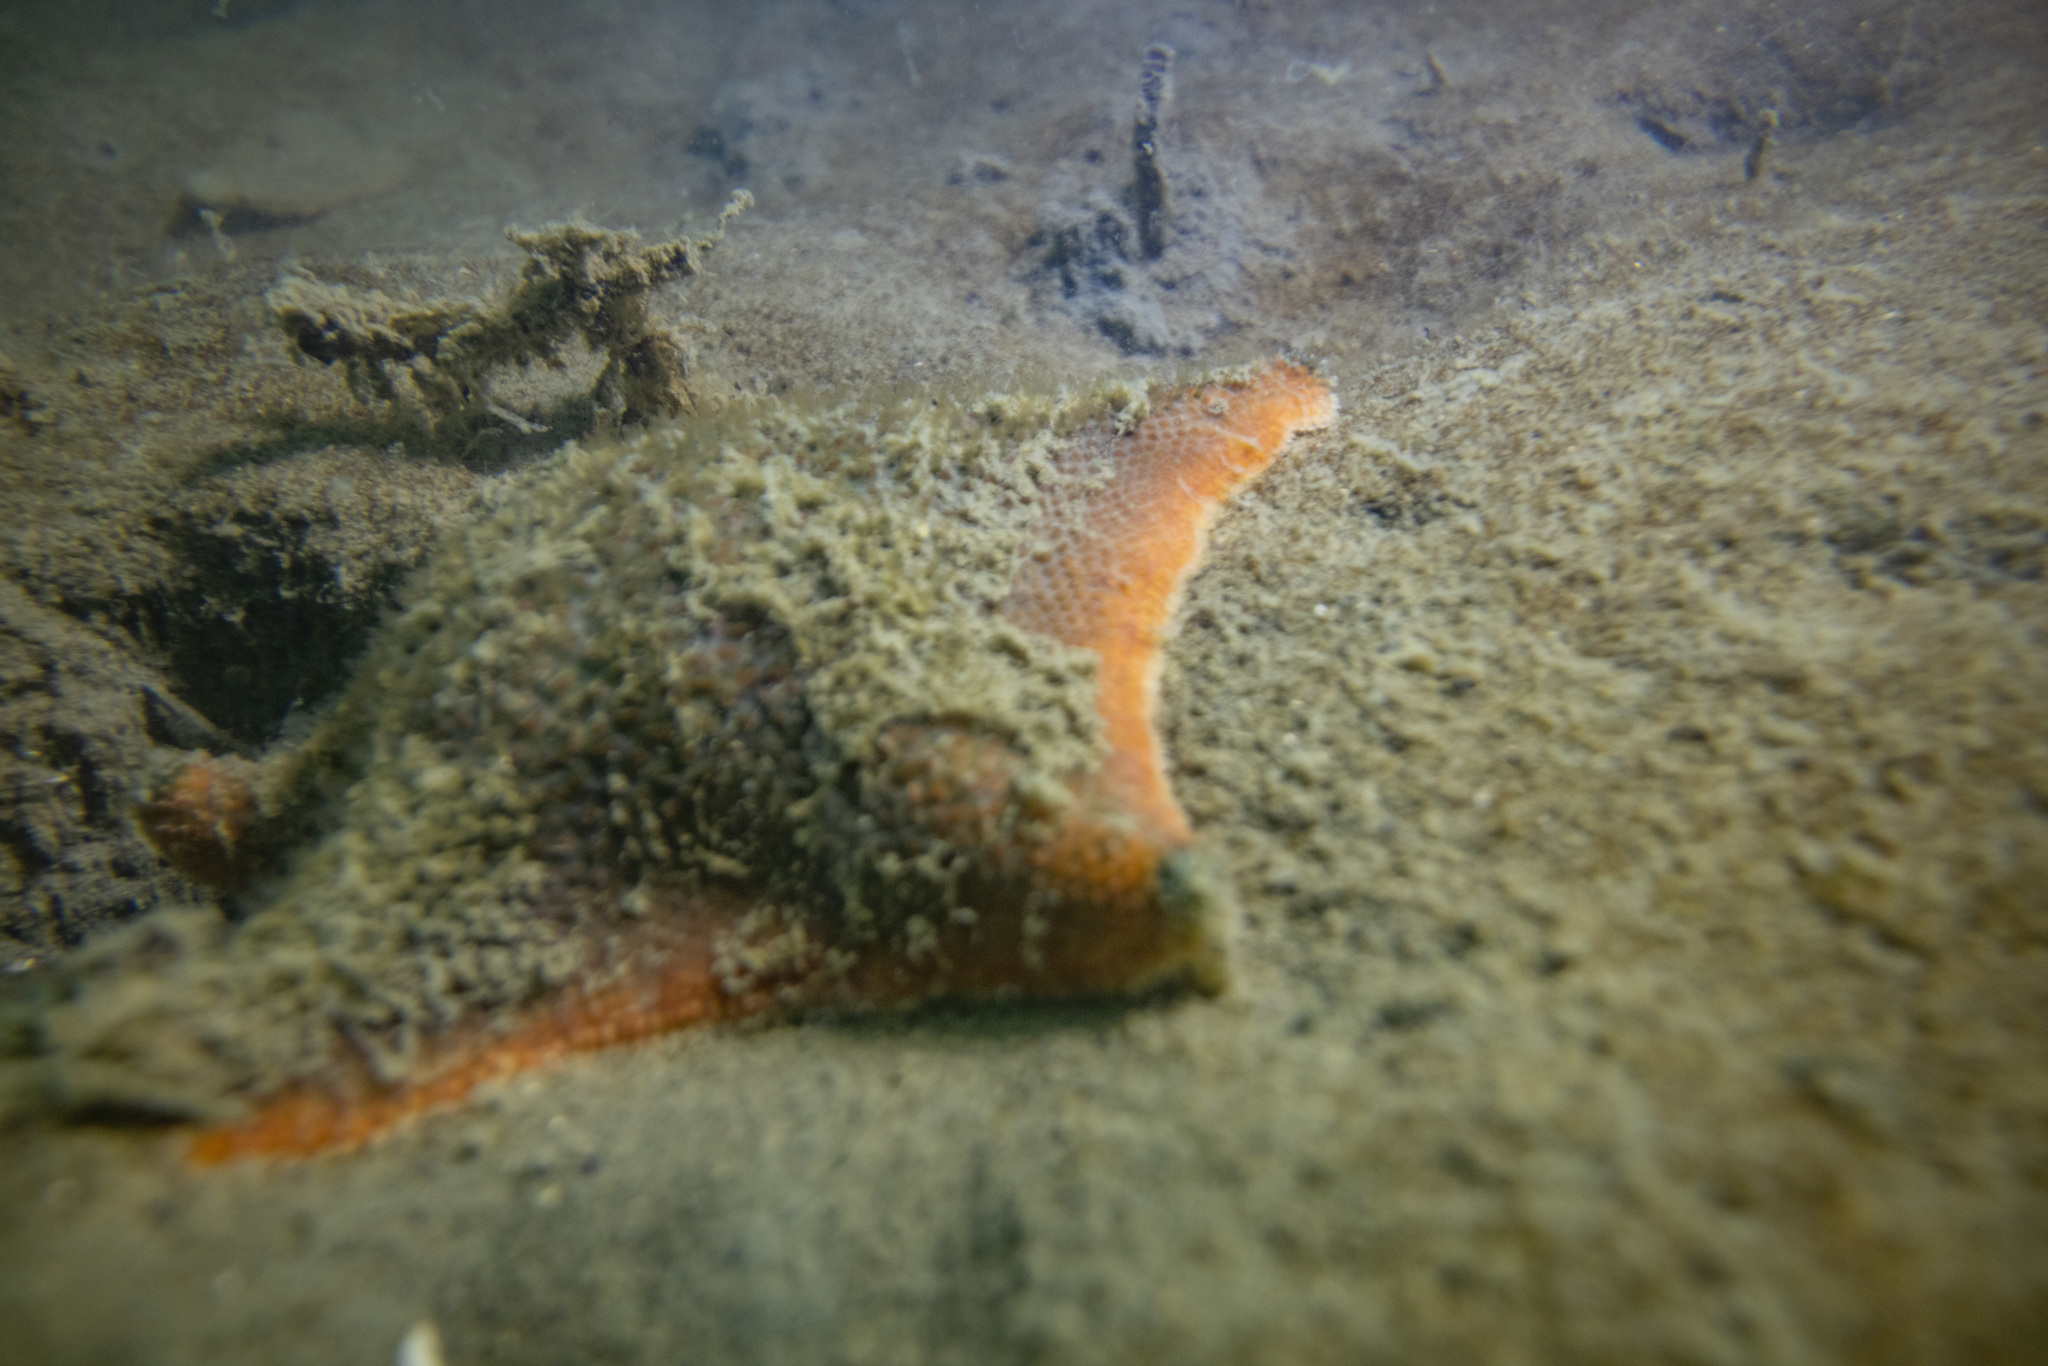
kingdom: Animalia
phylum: Echinodermata
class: Asteroidea
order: Valvatida
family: Asterinidae
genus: Patiriella
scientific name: Patiriella regularis
